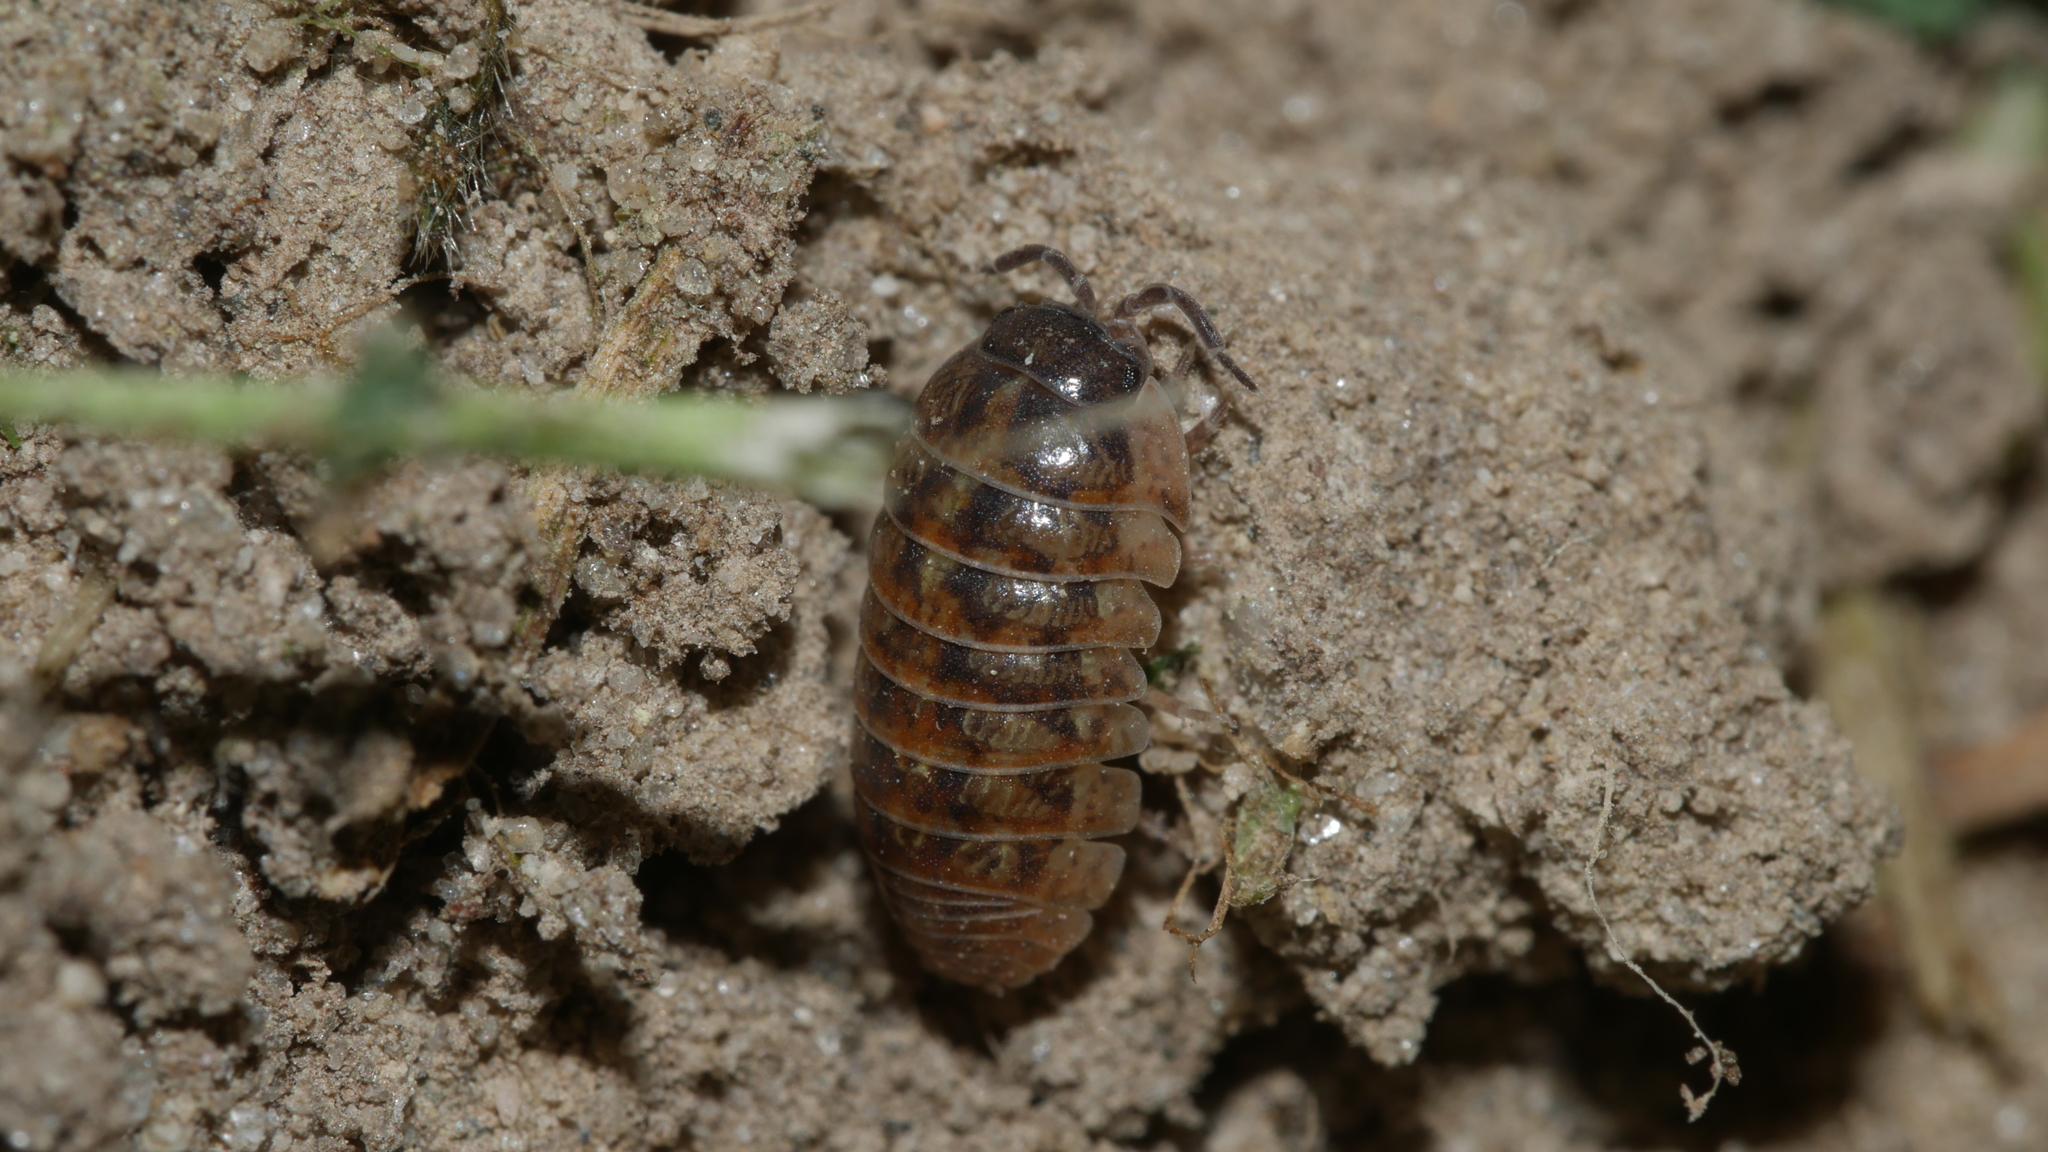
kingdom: Animalia
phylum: Arthropoda
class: Malacostraca
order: Isopoda
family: Armadillidiidae
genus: Armadillidium
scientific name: Armadillidium vulgare
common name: Common pill woodlouse
